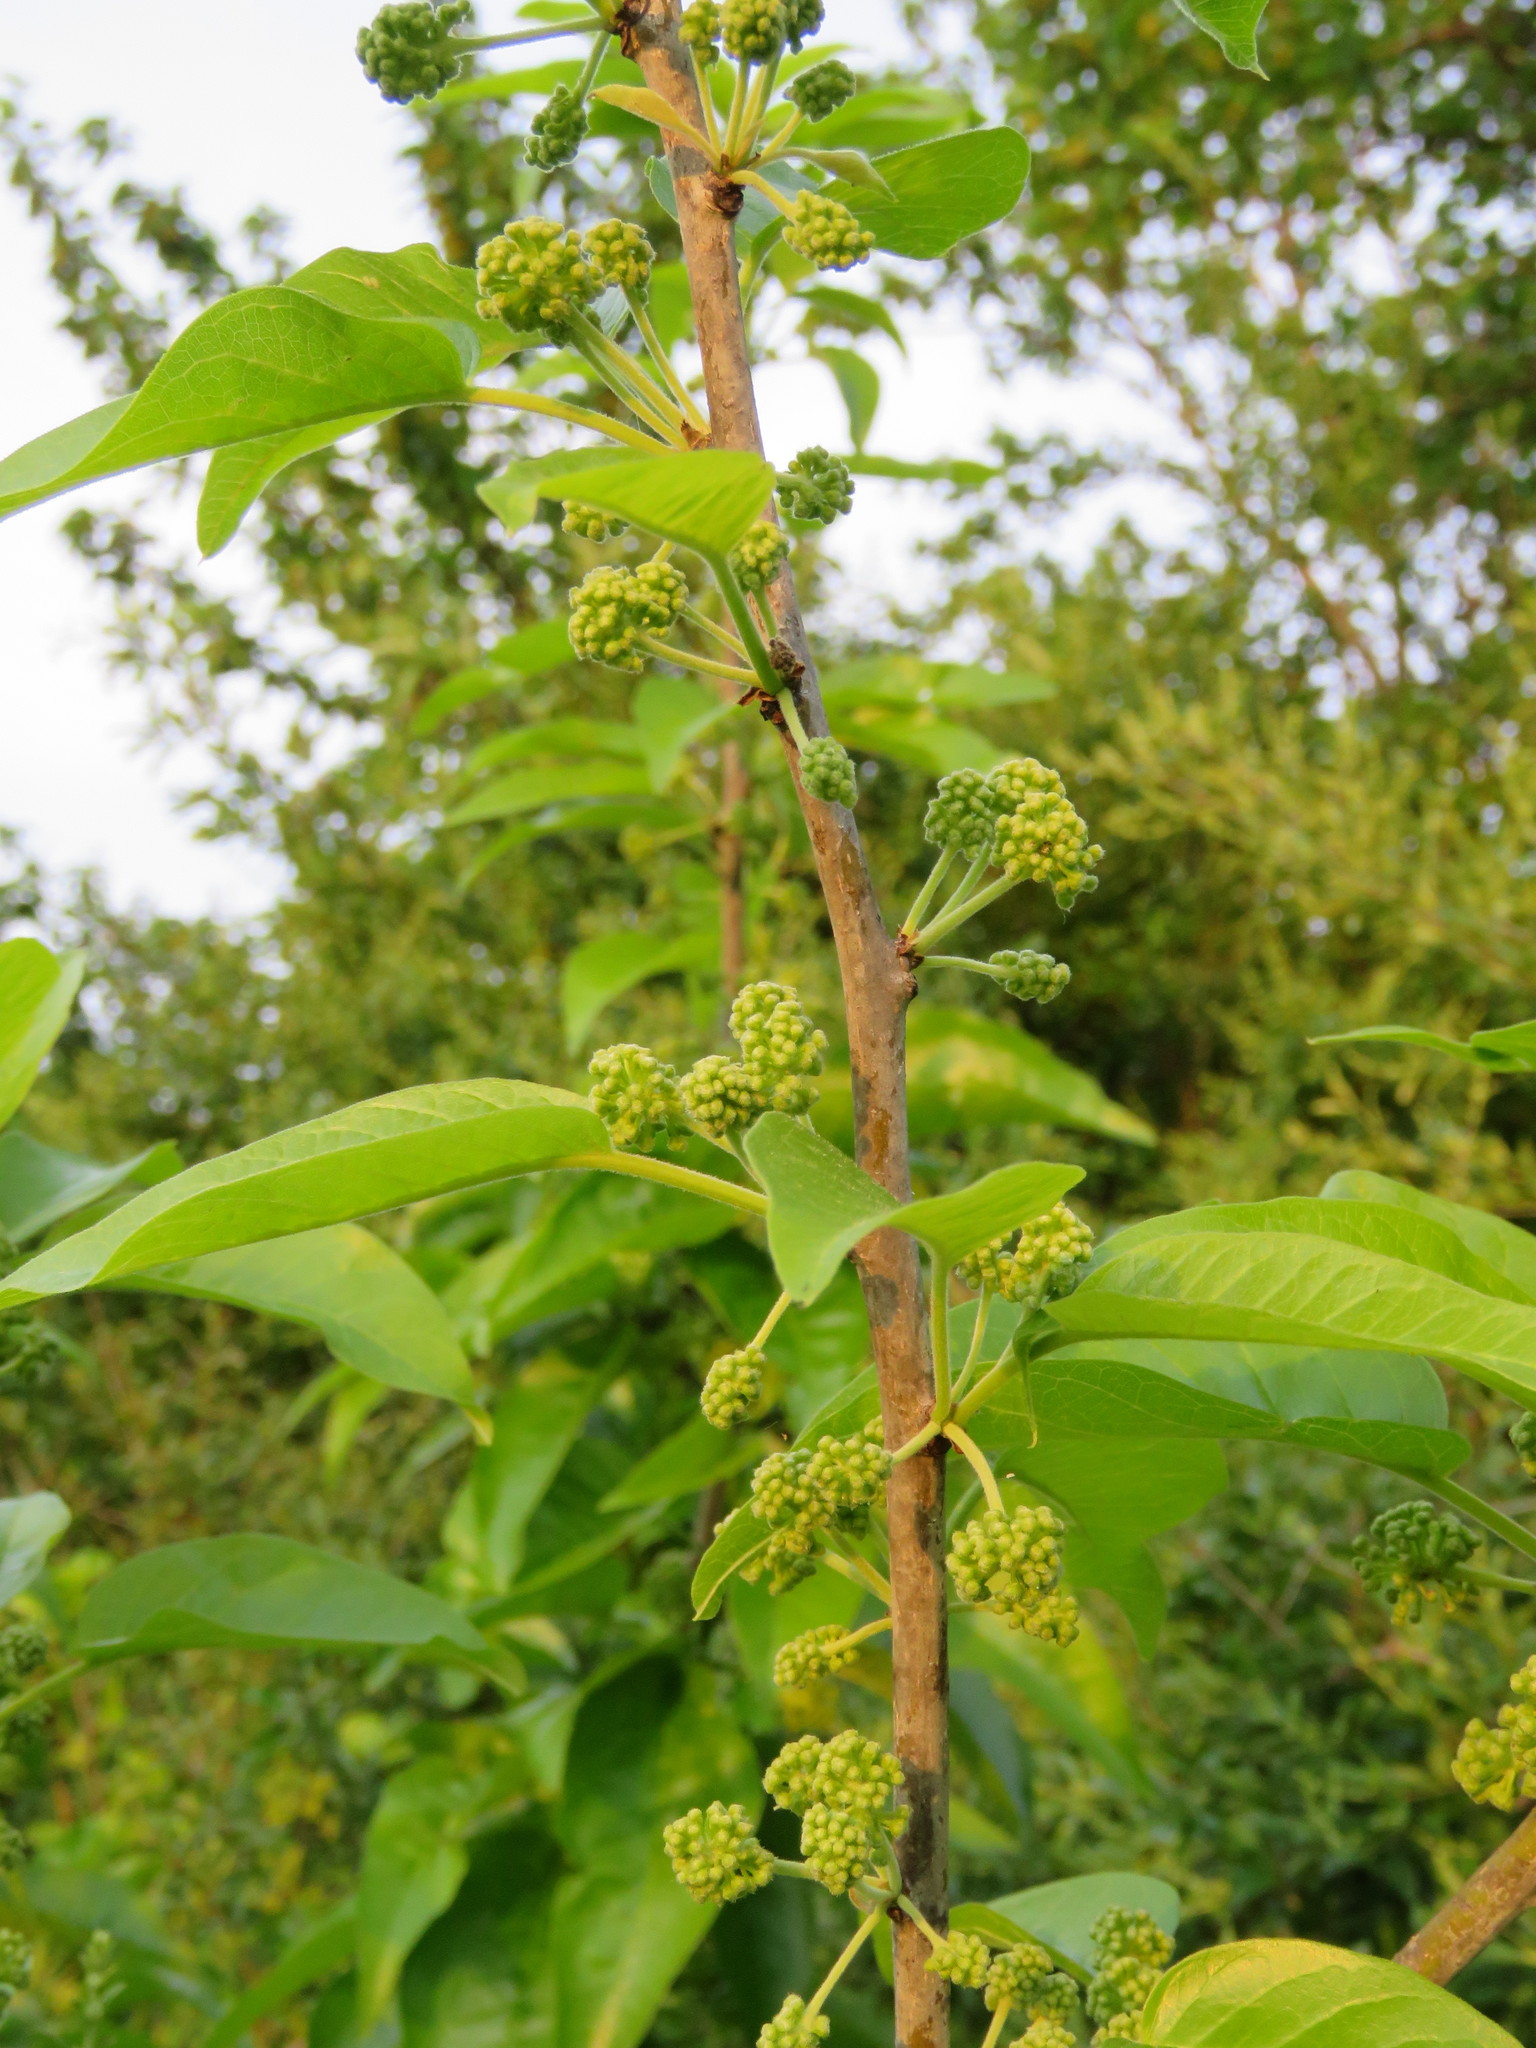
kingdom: Plantae
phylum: Tracheophyta
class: Magnoliopsida
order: Rosales
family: Moraceae
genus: Maclura
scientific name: Maclura pomifera
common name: Osage-orange
